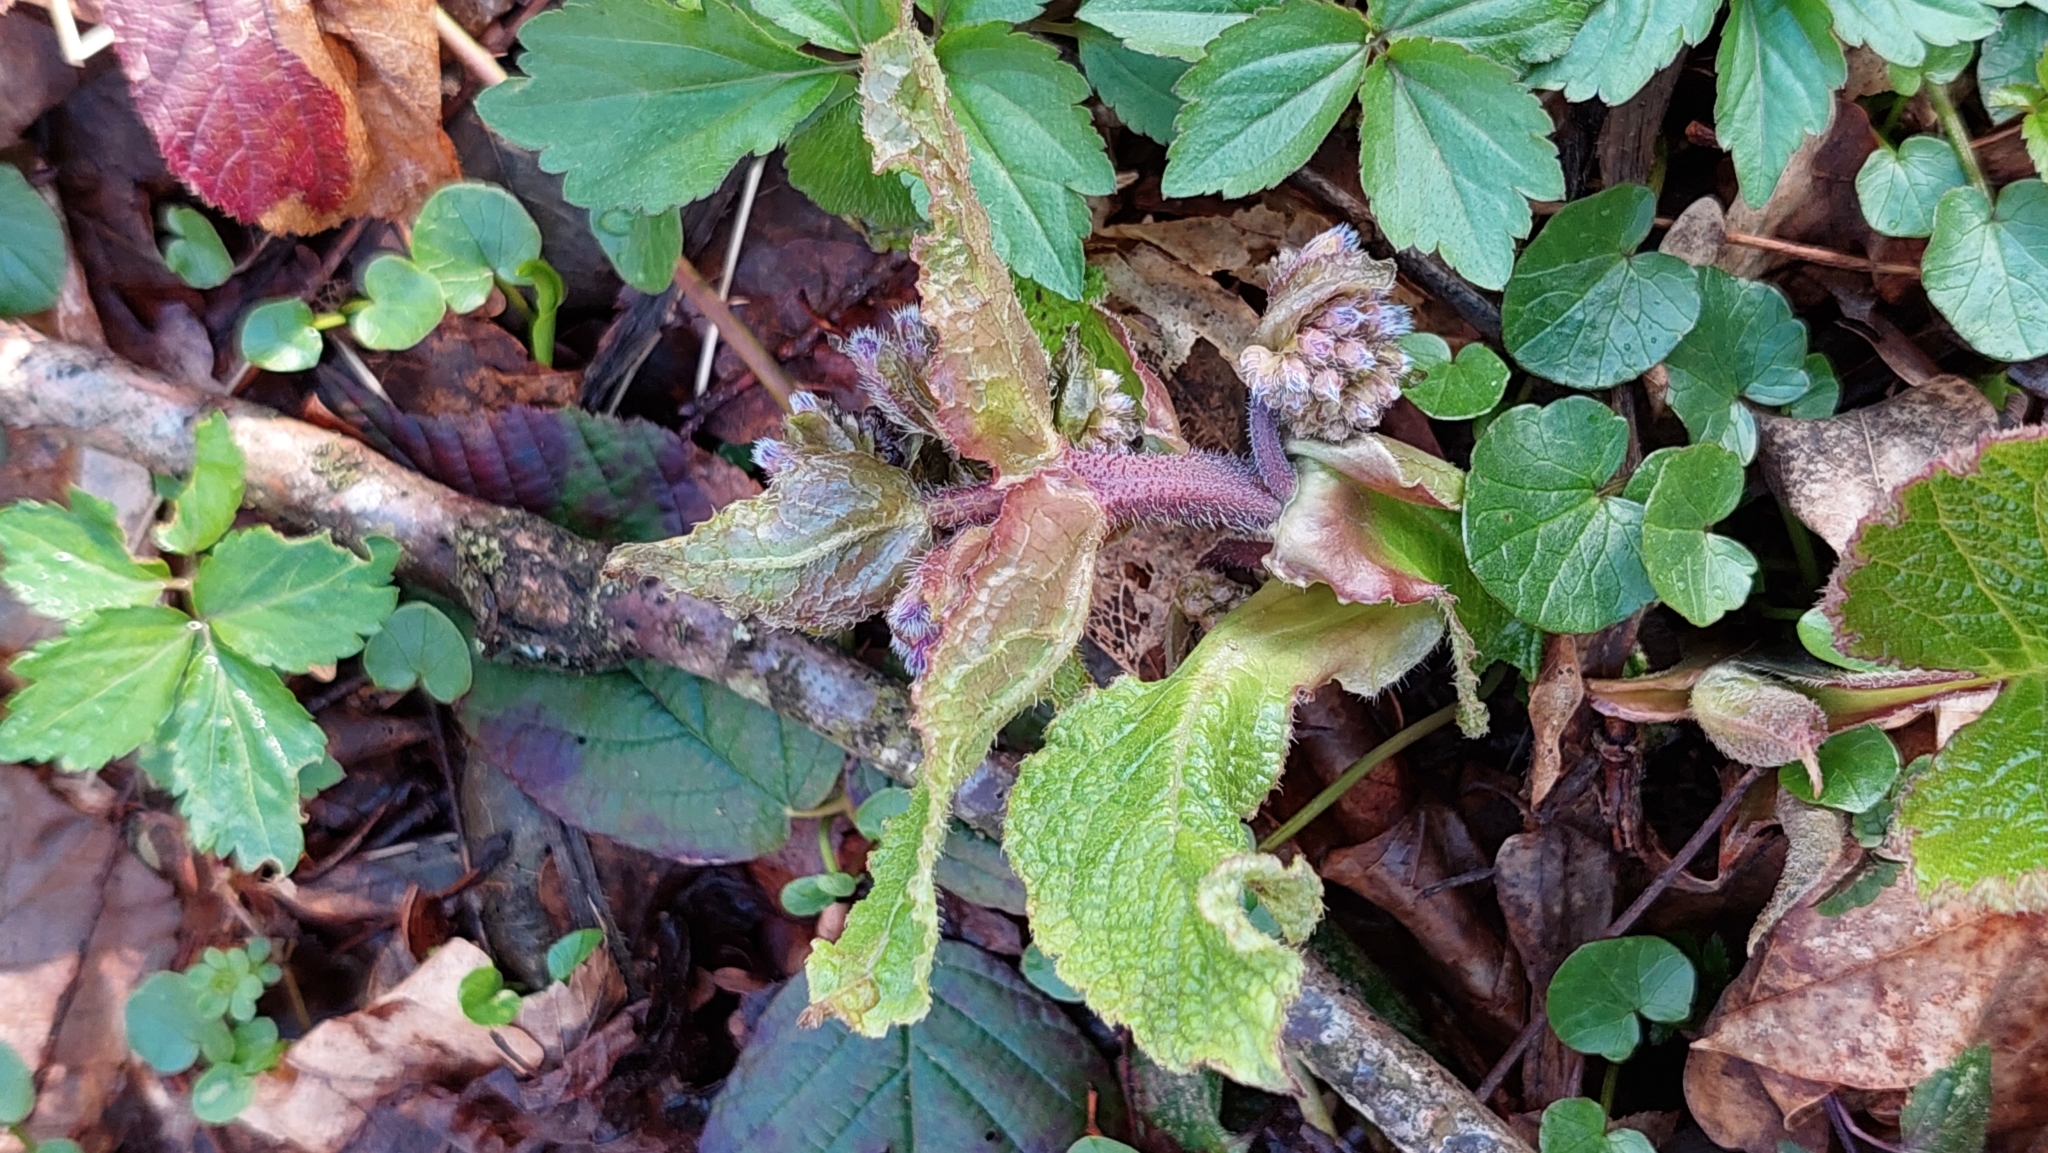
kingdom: Plantae
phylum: Tracheophyta
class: Magnoliopsida
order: Boraginales
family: Boraginaceae
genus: Trachystemon
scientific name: Trachystemon orientale
